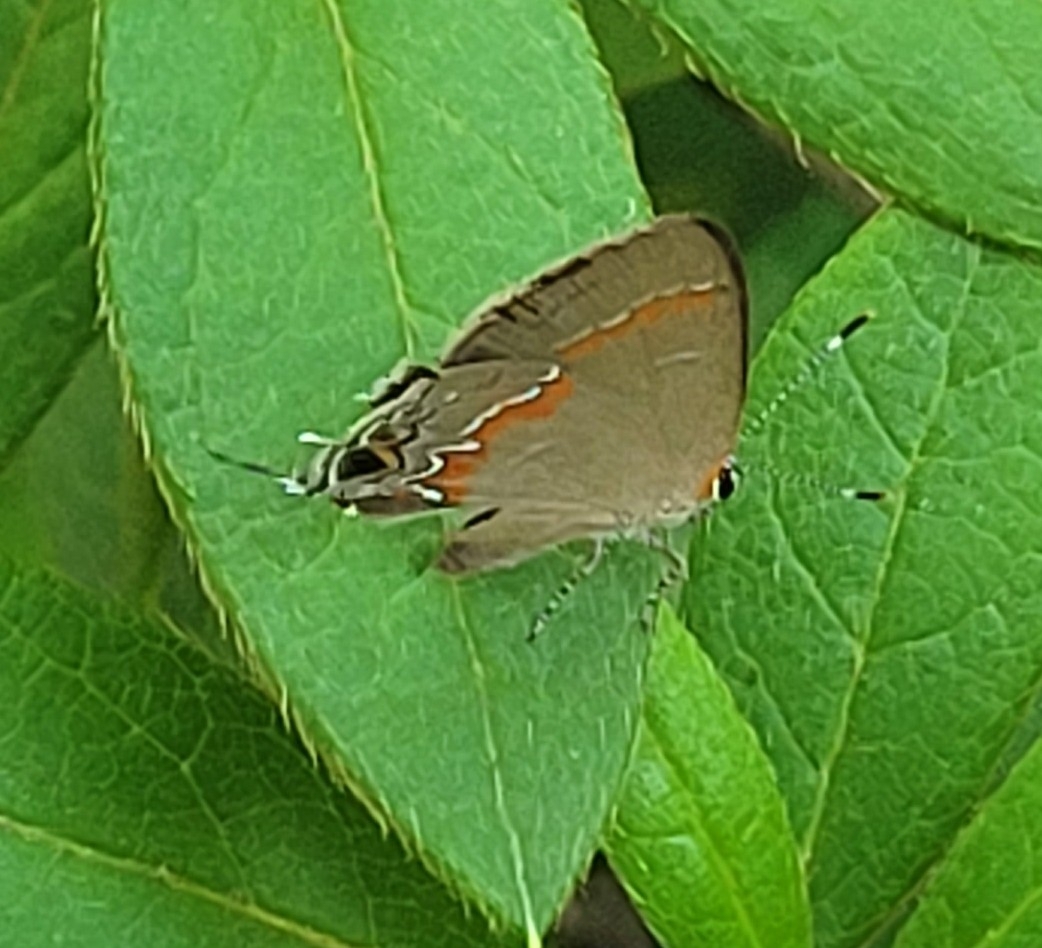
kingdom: Animalia
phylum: Arthropoda
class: Insecta
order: Lepidoptera
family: Lycaenidae
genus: Calycopis
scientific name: Calycopis cecrops
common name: Red-banded hairstreak
